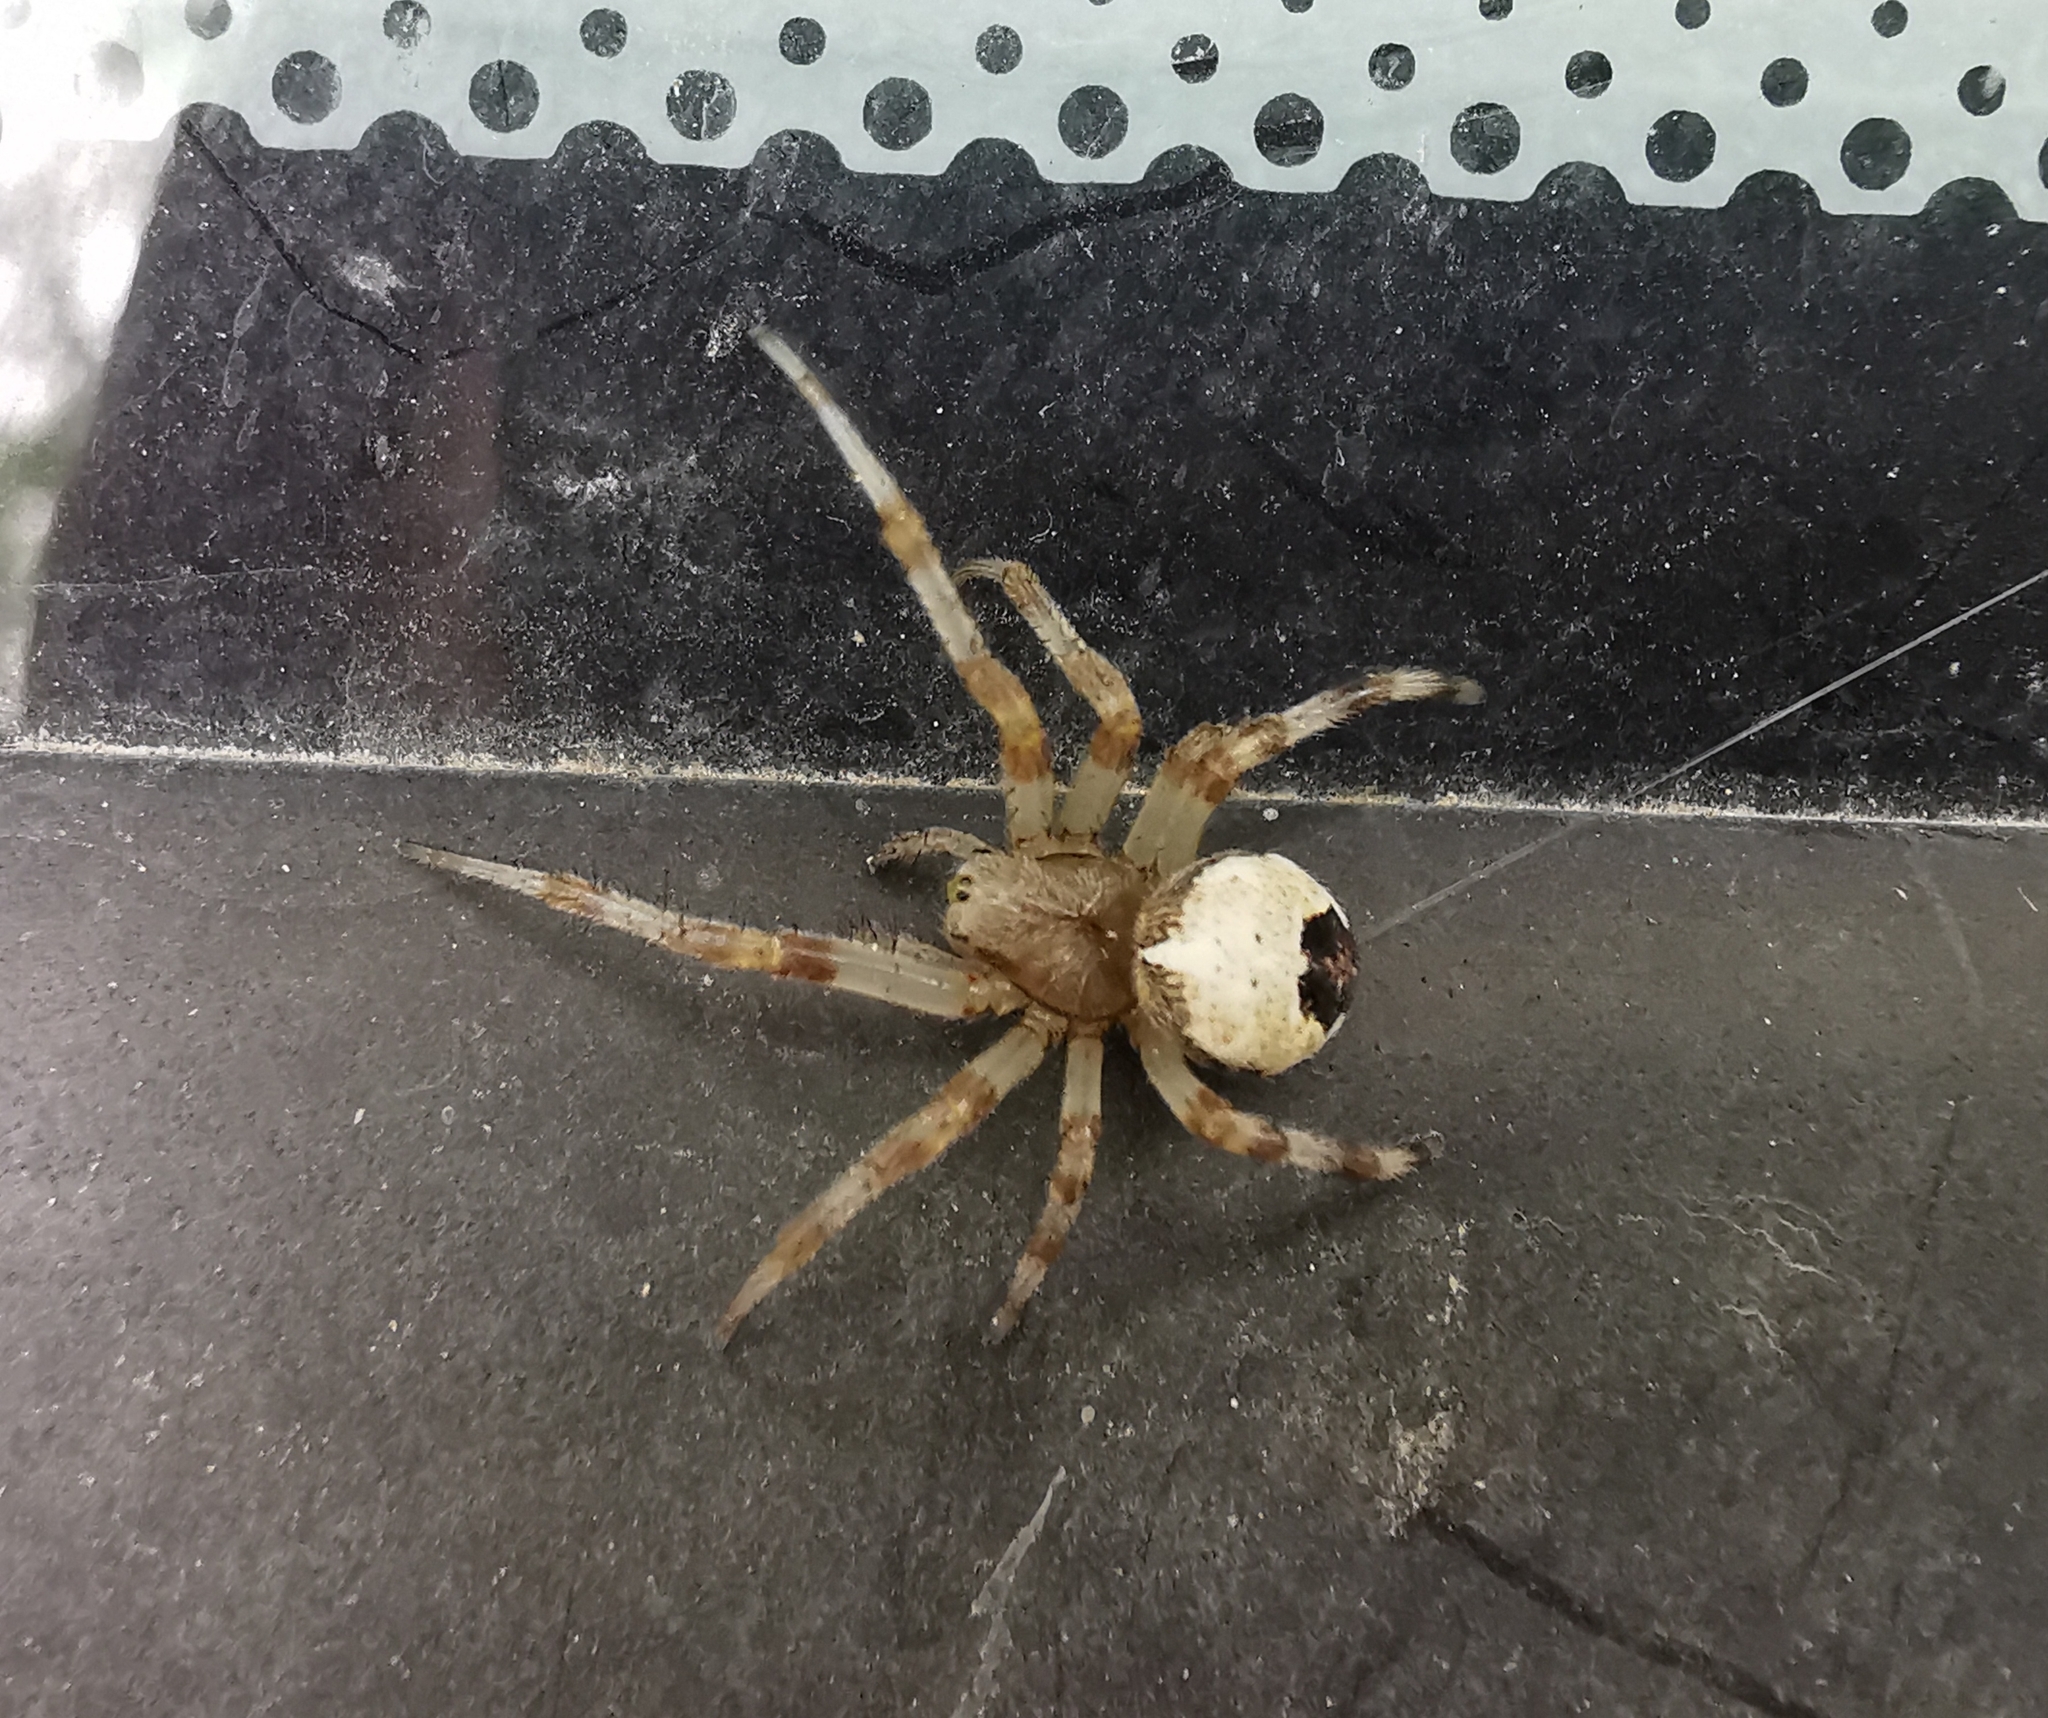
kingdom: Animalia
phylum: Arthropoda
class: Arachnida
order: Araneae
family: Araneidae
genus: Araneus
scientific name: Araneus marmoreus
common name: Marbled orbweaver
